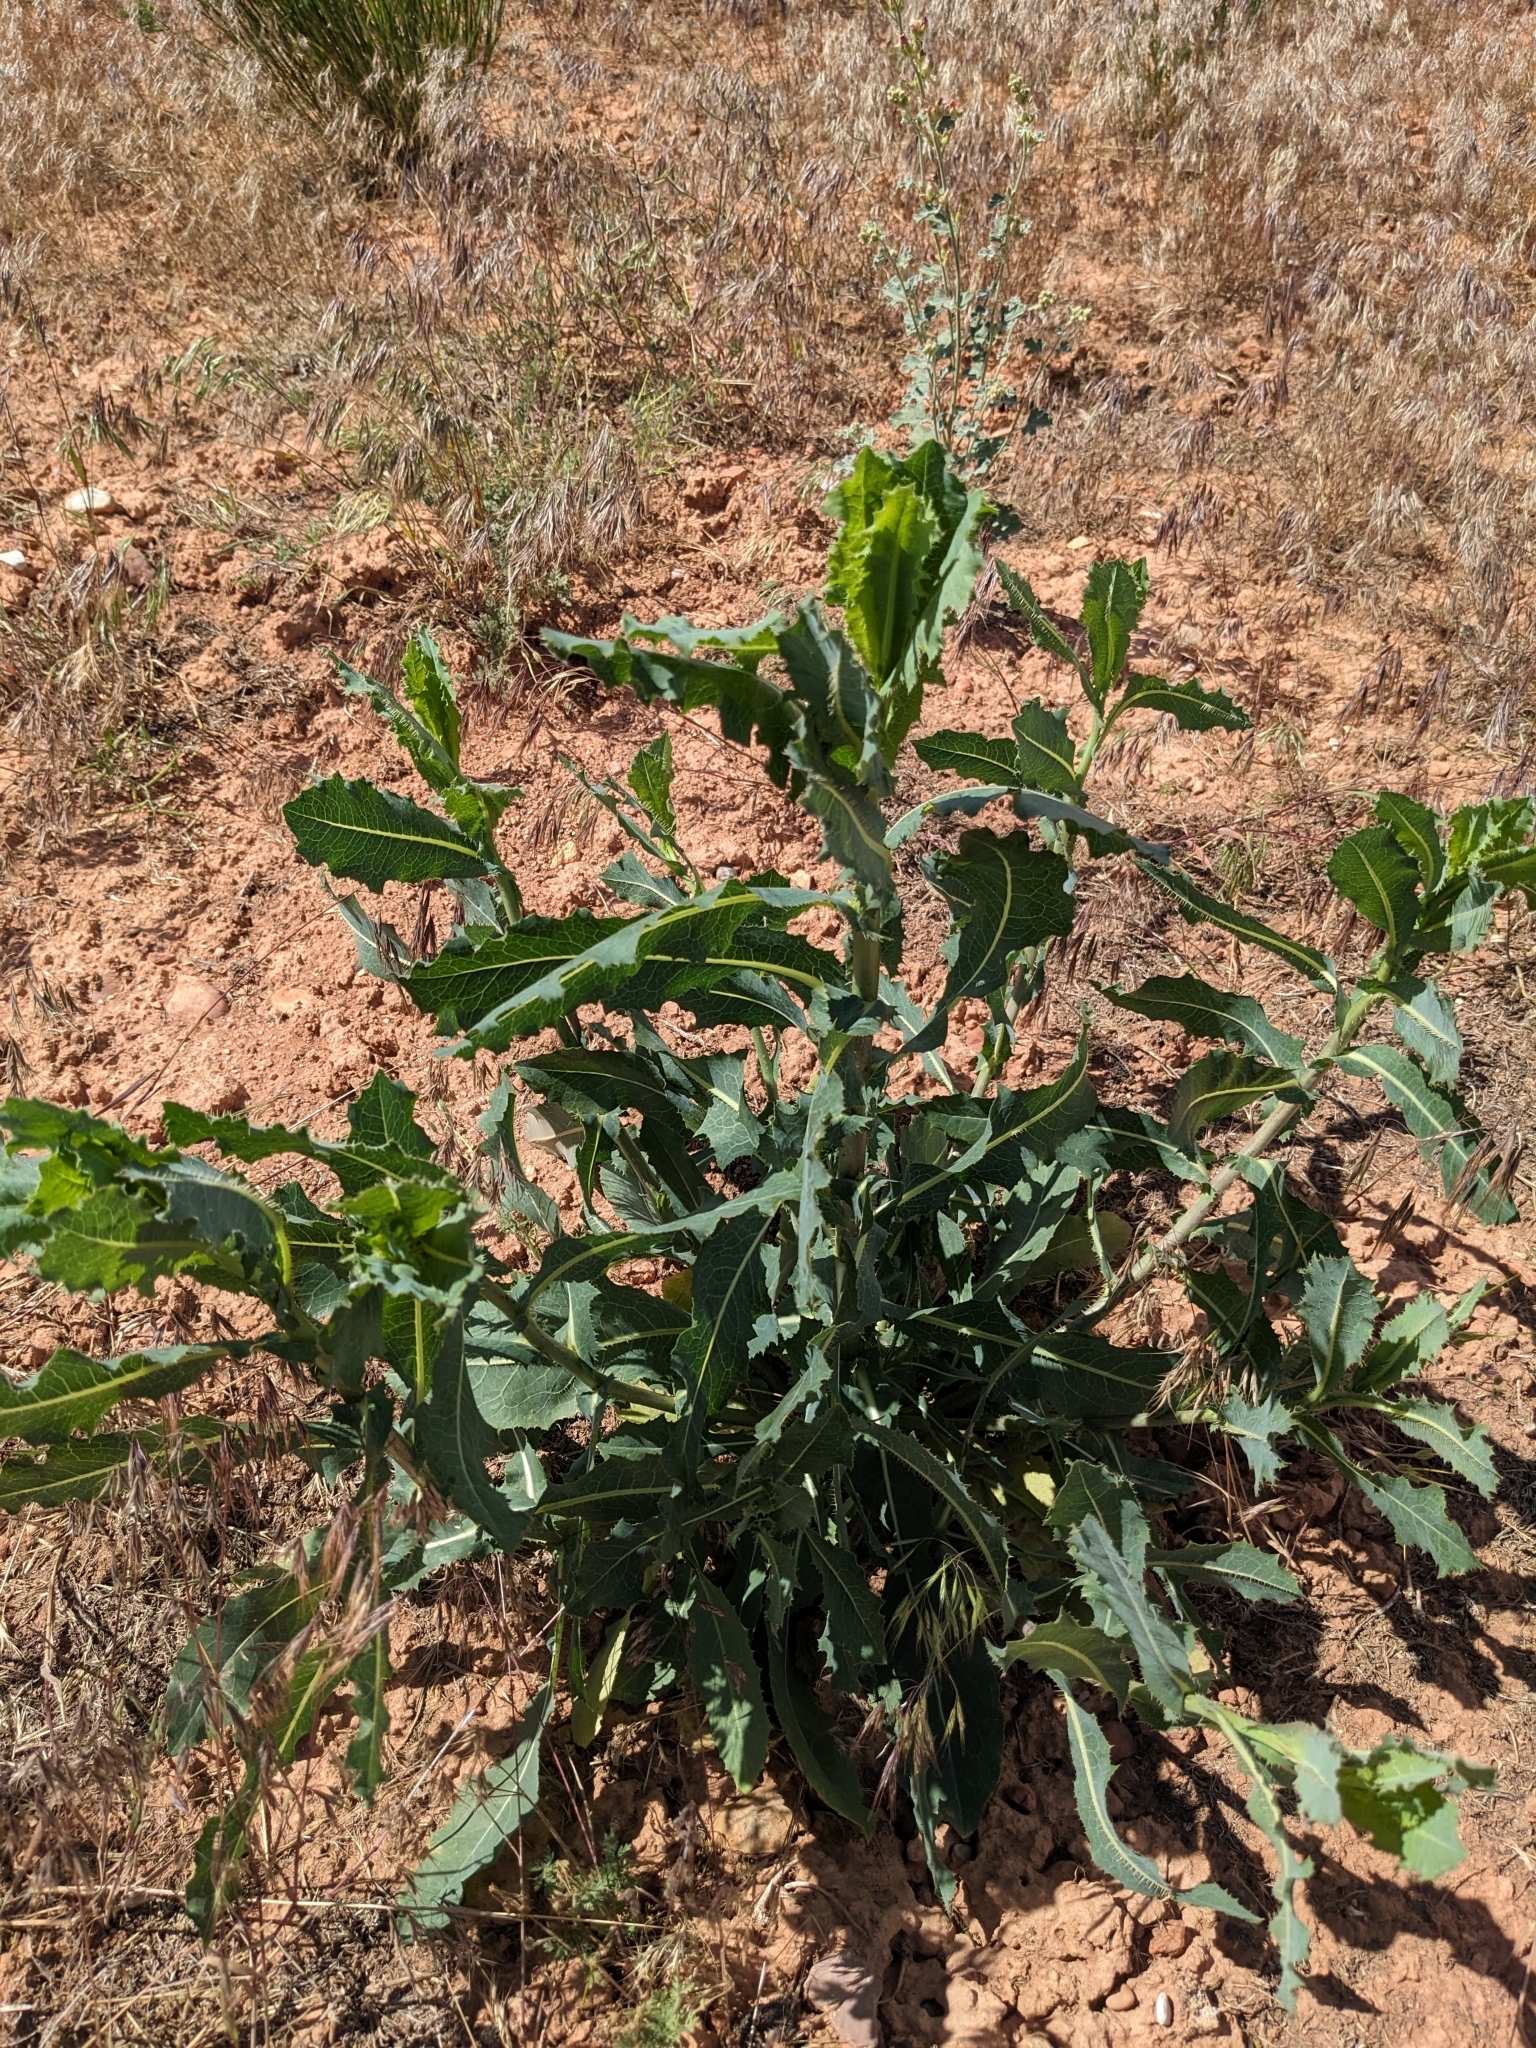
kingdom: Plantae
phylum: Tracheophyta
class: Magnoliopsida
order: Asterales
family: Asteraceae
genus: Lactuca
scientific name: Lactuca serriola
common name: Prickly lettuce
